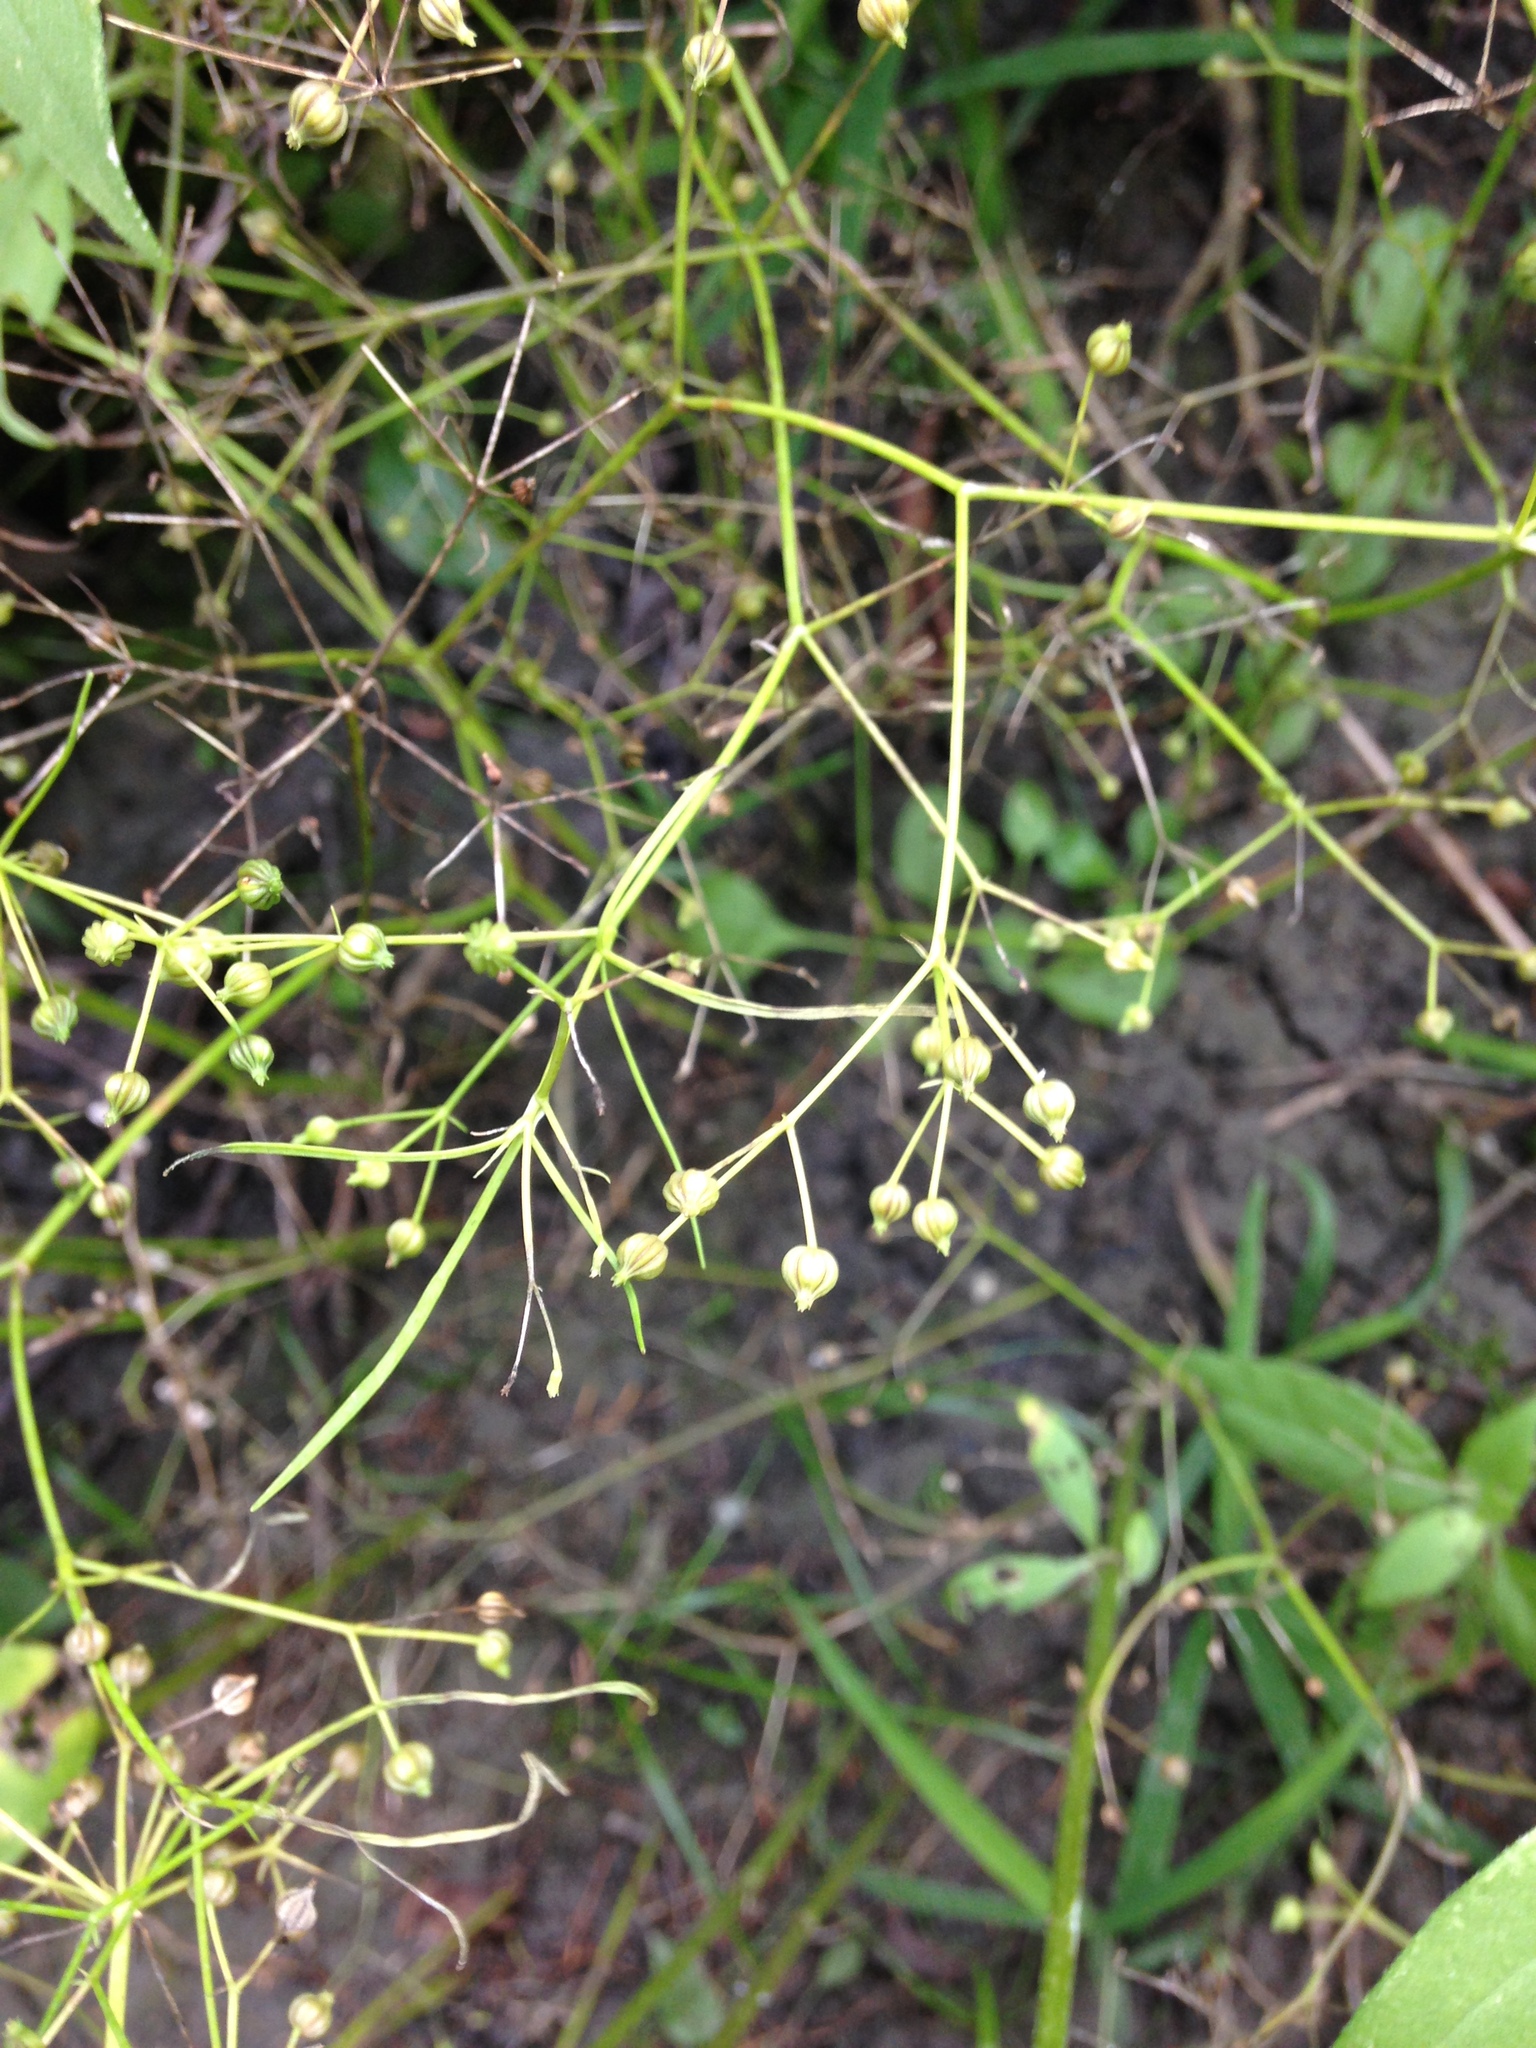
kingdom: Plantae
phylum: Tracheophyta
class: Magnoliopsida
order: Apiales
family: Apiaceae
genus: Cynosciadium
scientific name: Cynosciadium digitatum
